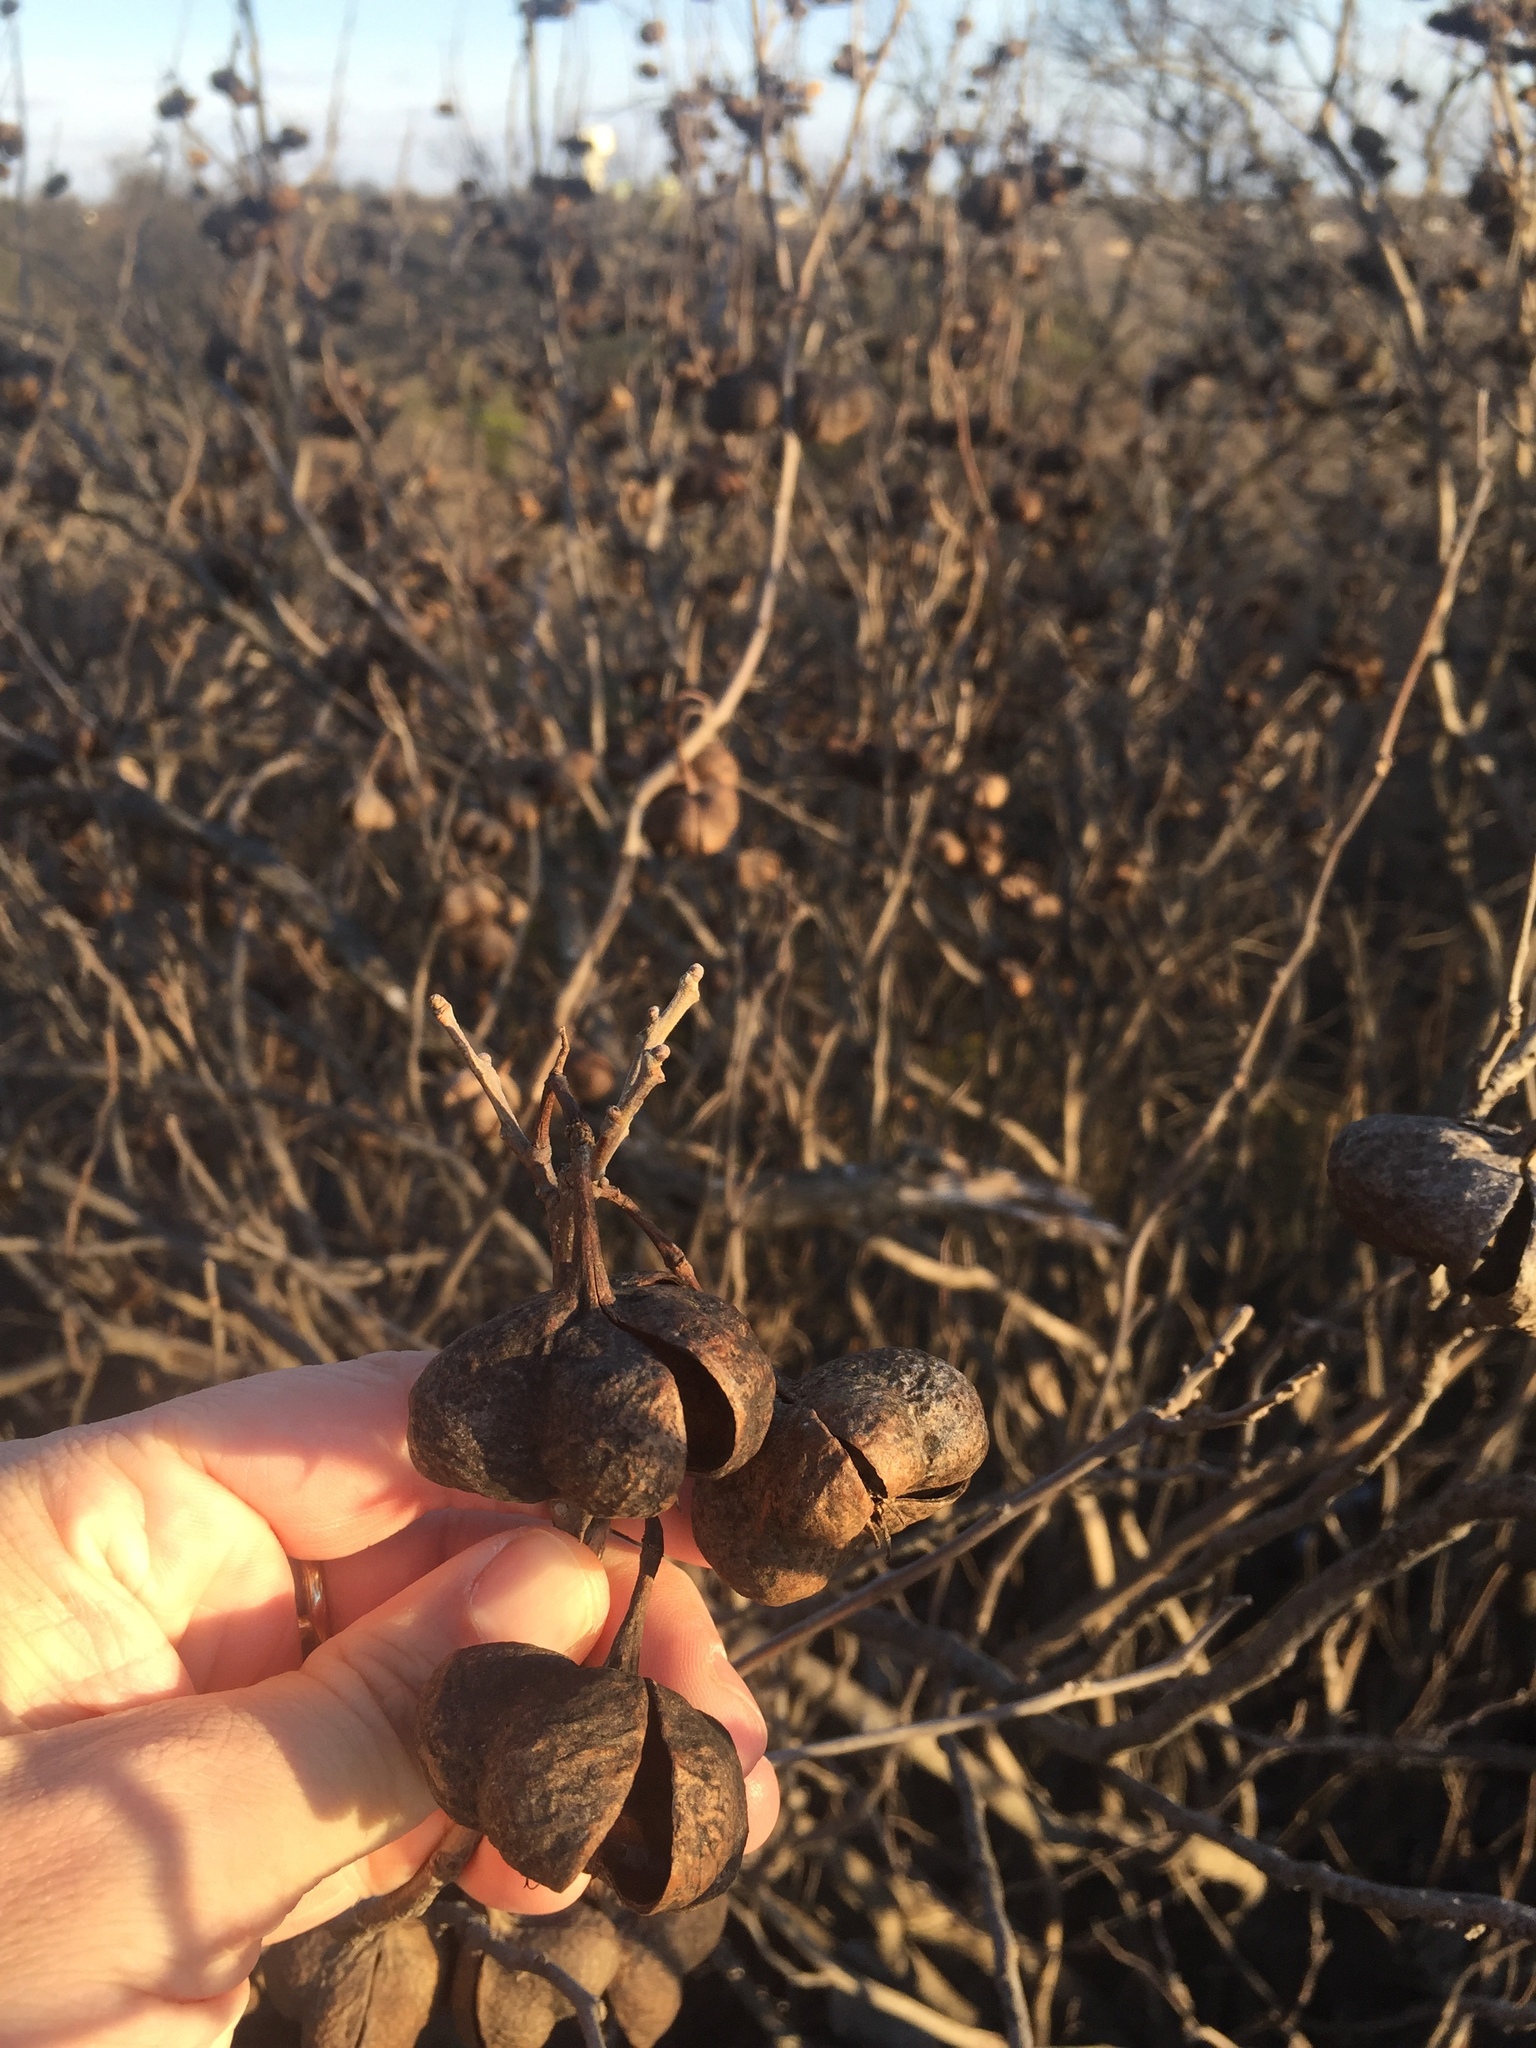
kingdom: Plantae
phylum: Tracheophyta
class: Magnoliopsida
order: Sapindales
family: Sapindaceae
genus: Ungnadia
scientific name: Ungnadia speciosa
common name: Texas-buckeye
